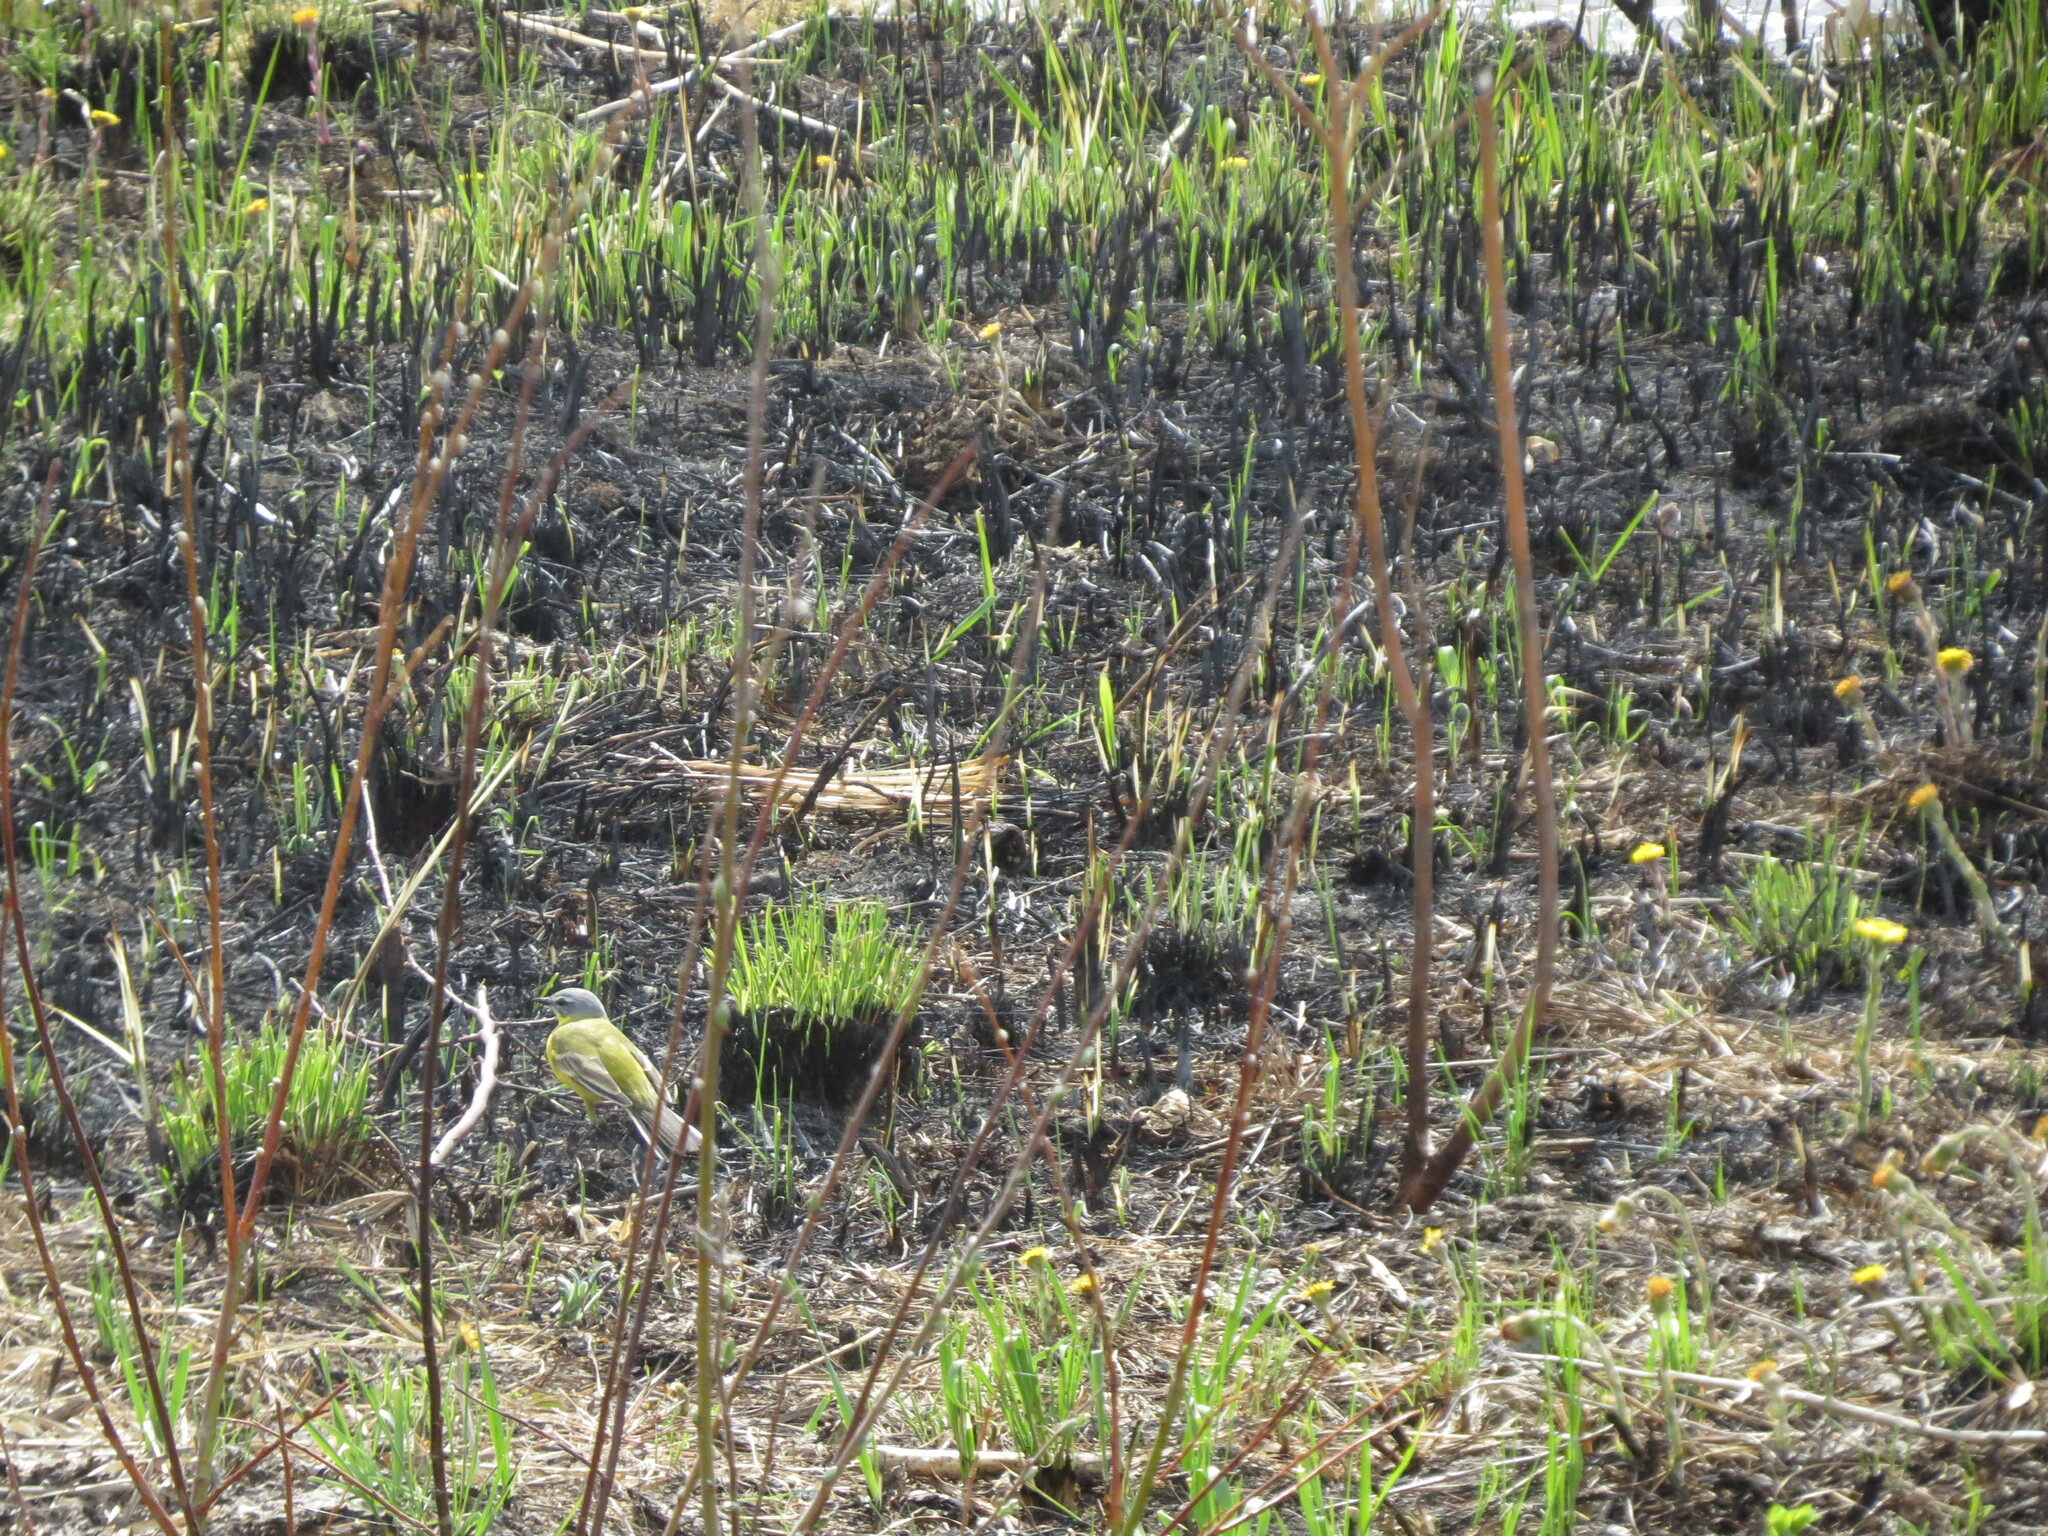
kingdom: Animalia
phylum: Chordata
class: Aves
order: Passeriformes
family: Motacillidae
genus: Motacilla
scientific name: Motacilla flava
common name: Western yellow wagtail
